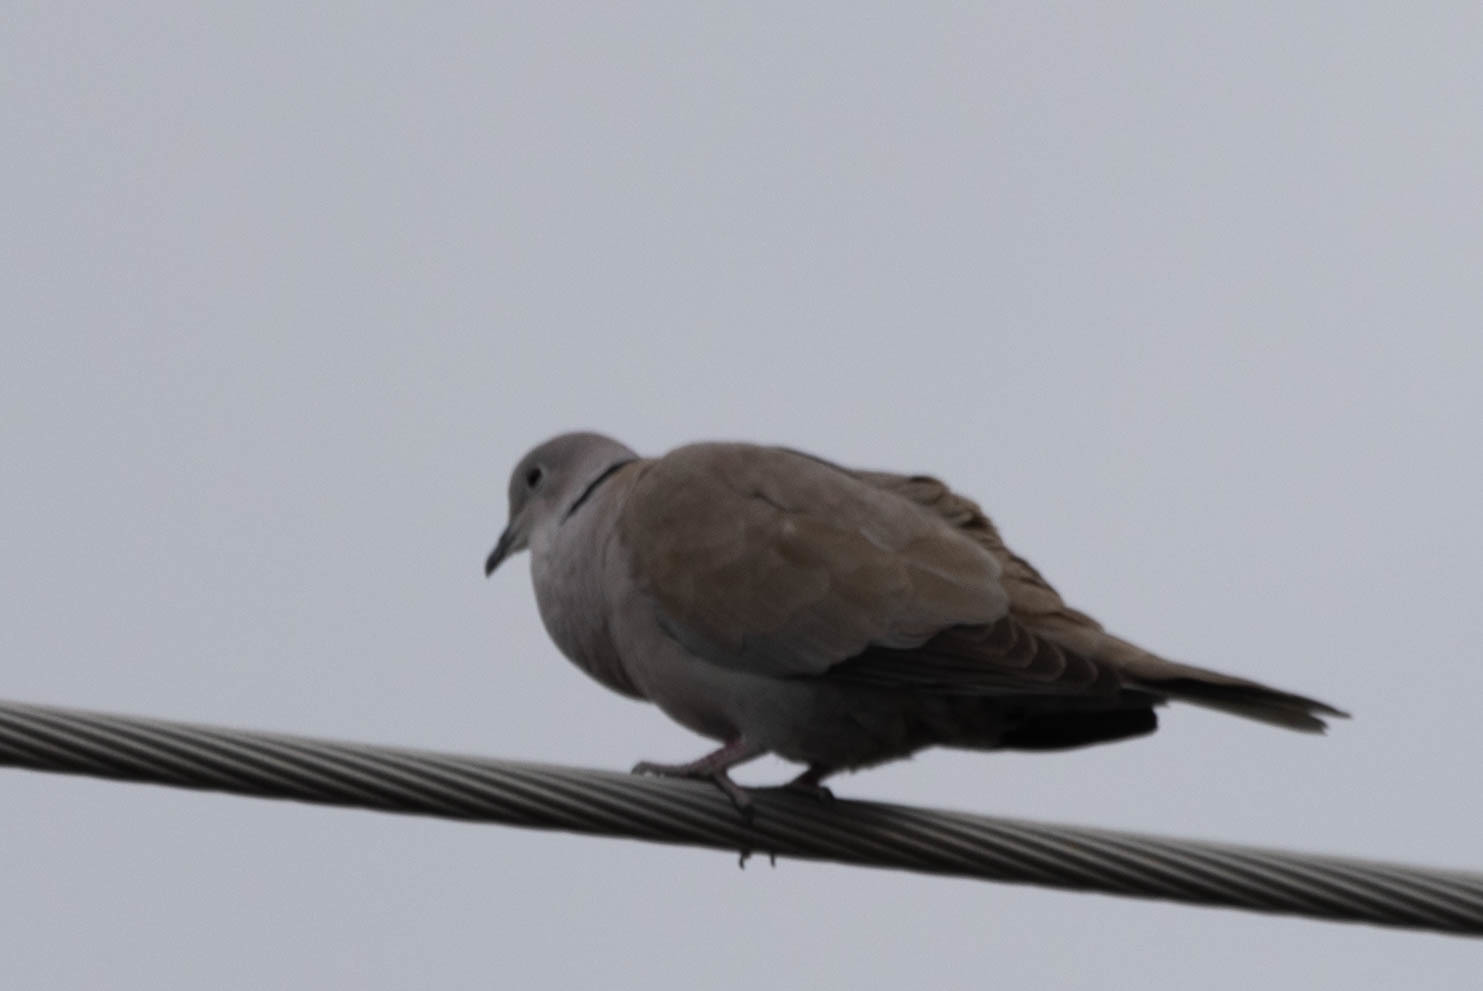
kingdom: Animalia
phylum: Chordata
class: Aves
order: Columbiformes
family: Columbidae
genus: Streptopelia
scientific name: Streptopelia decaocto
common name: Eurasian collared dove
